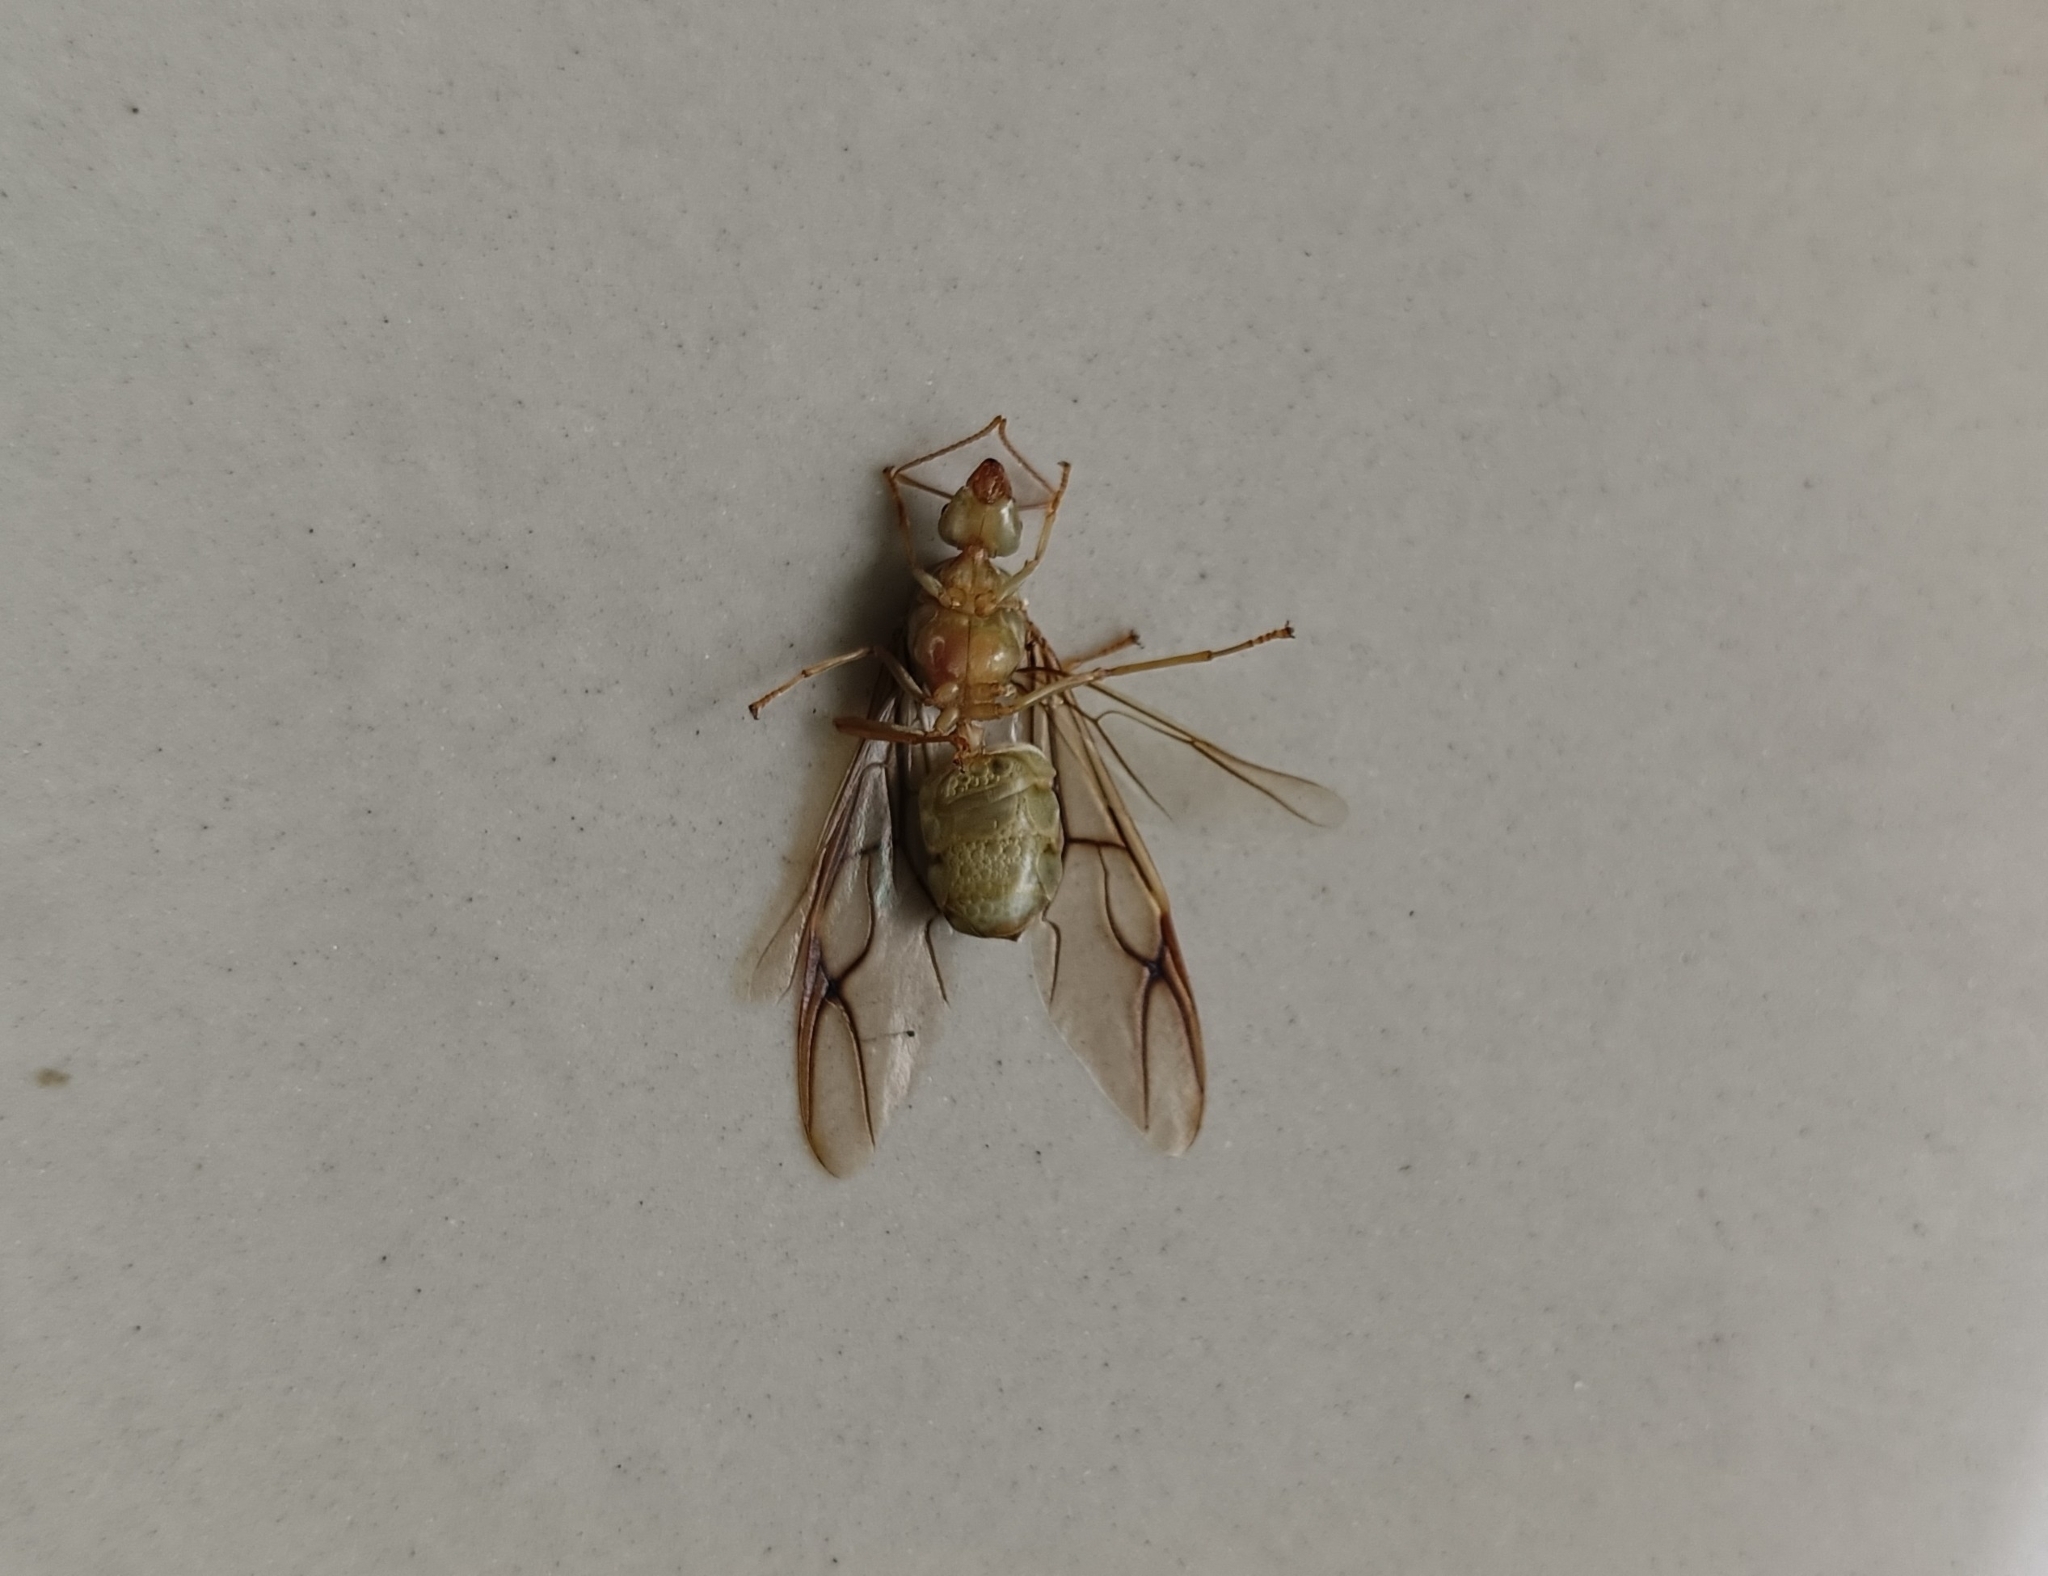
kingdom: Animalia
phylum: Arthropoda
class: Insecta
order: Hymenoptera
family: Formicidae
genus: Oecophylla
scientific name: Oecophylla smaragdina
